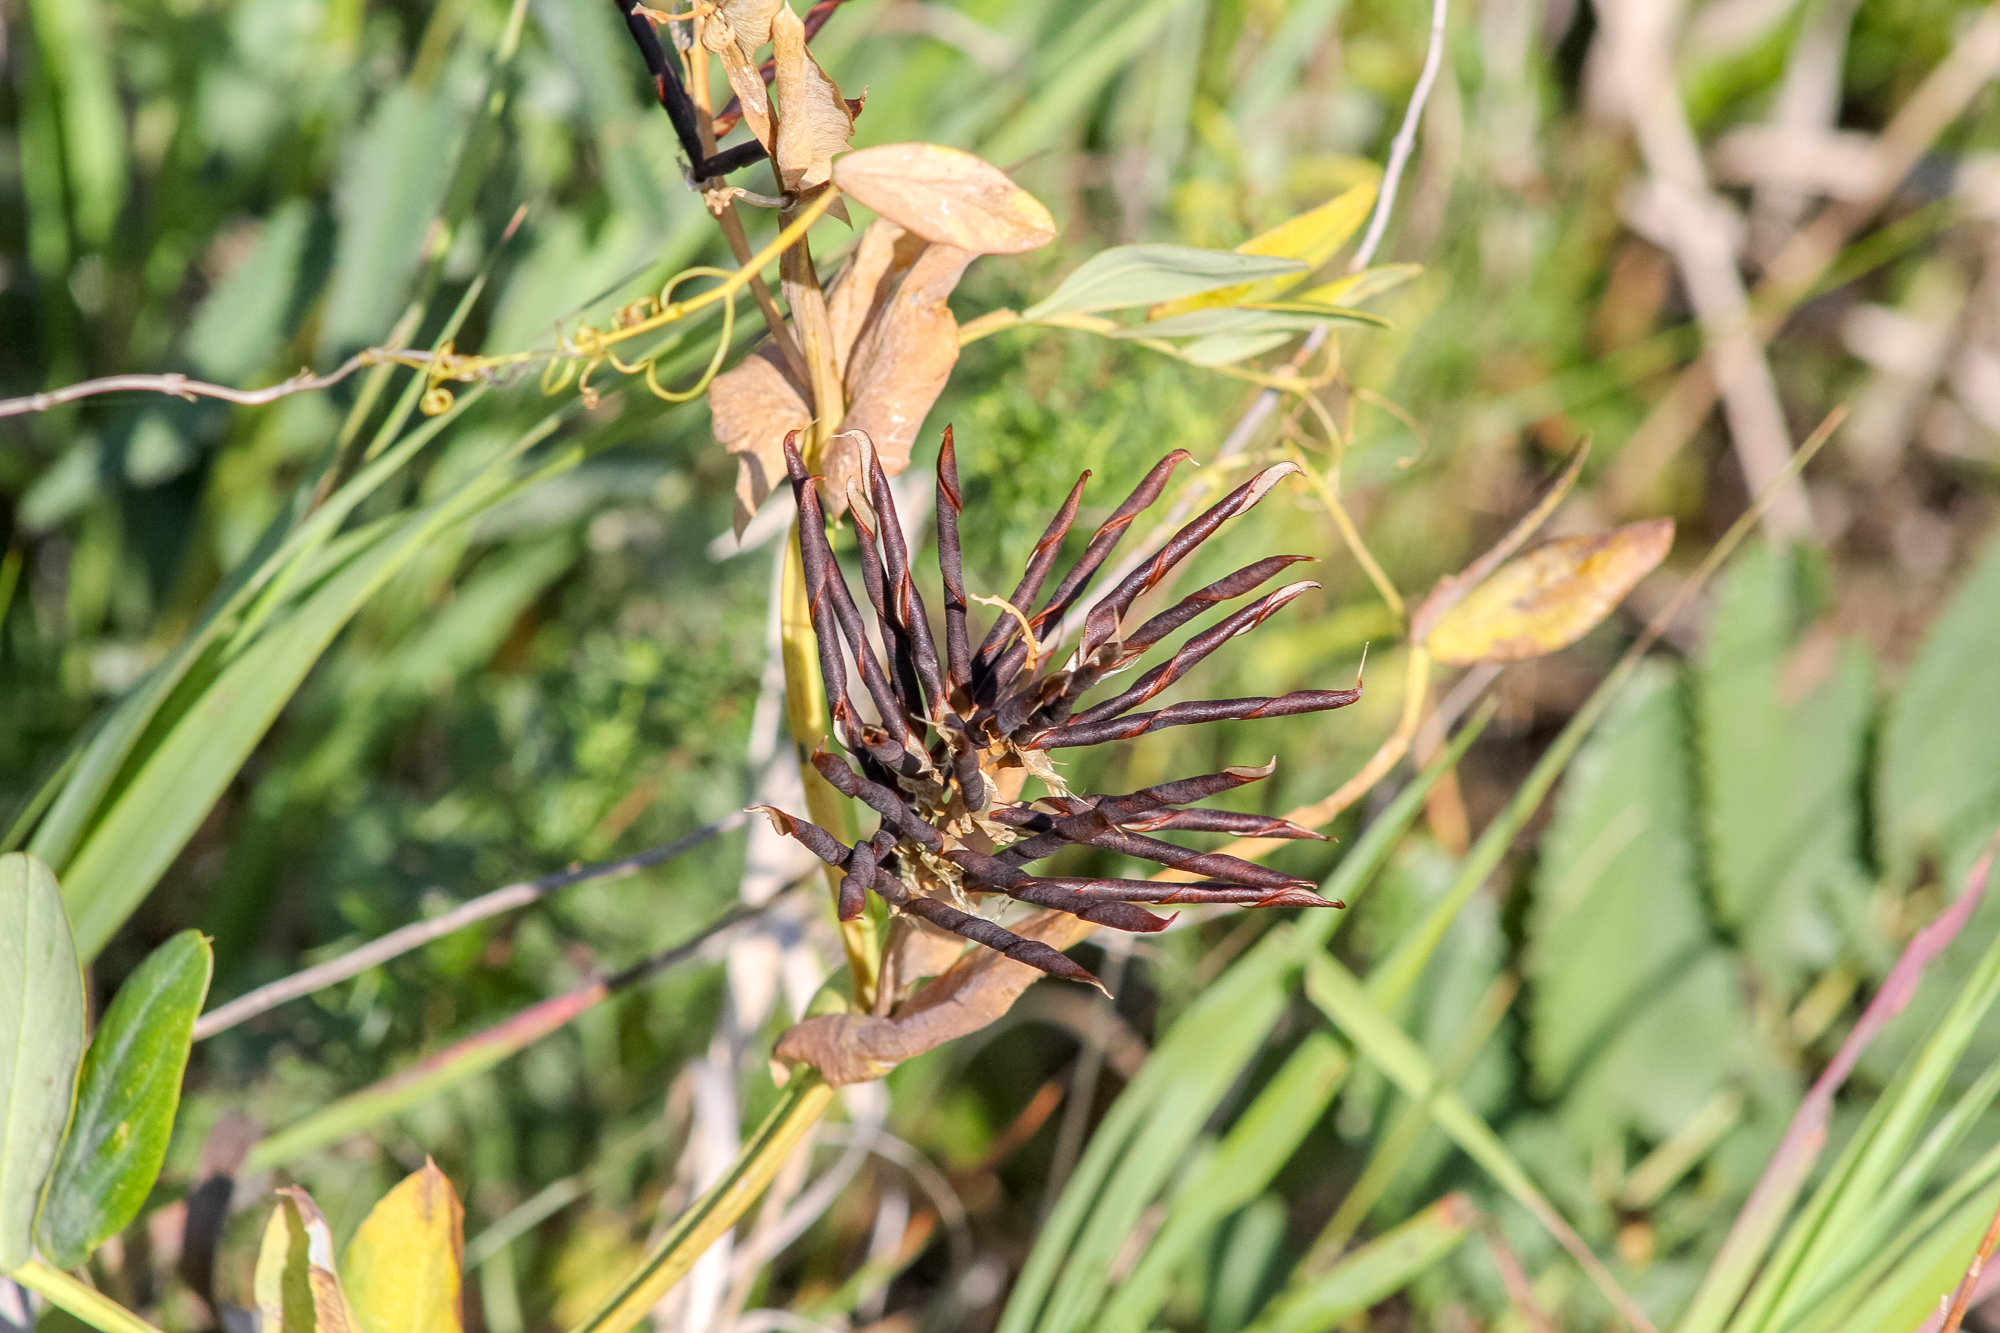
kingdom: Plantae
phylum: Tracheophyta
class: Magnoliopsida
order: Fabales
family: Fabaceae
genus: Lathyrus
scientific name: Lathyrus pisiformis
